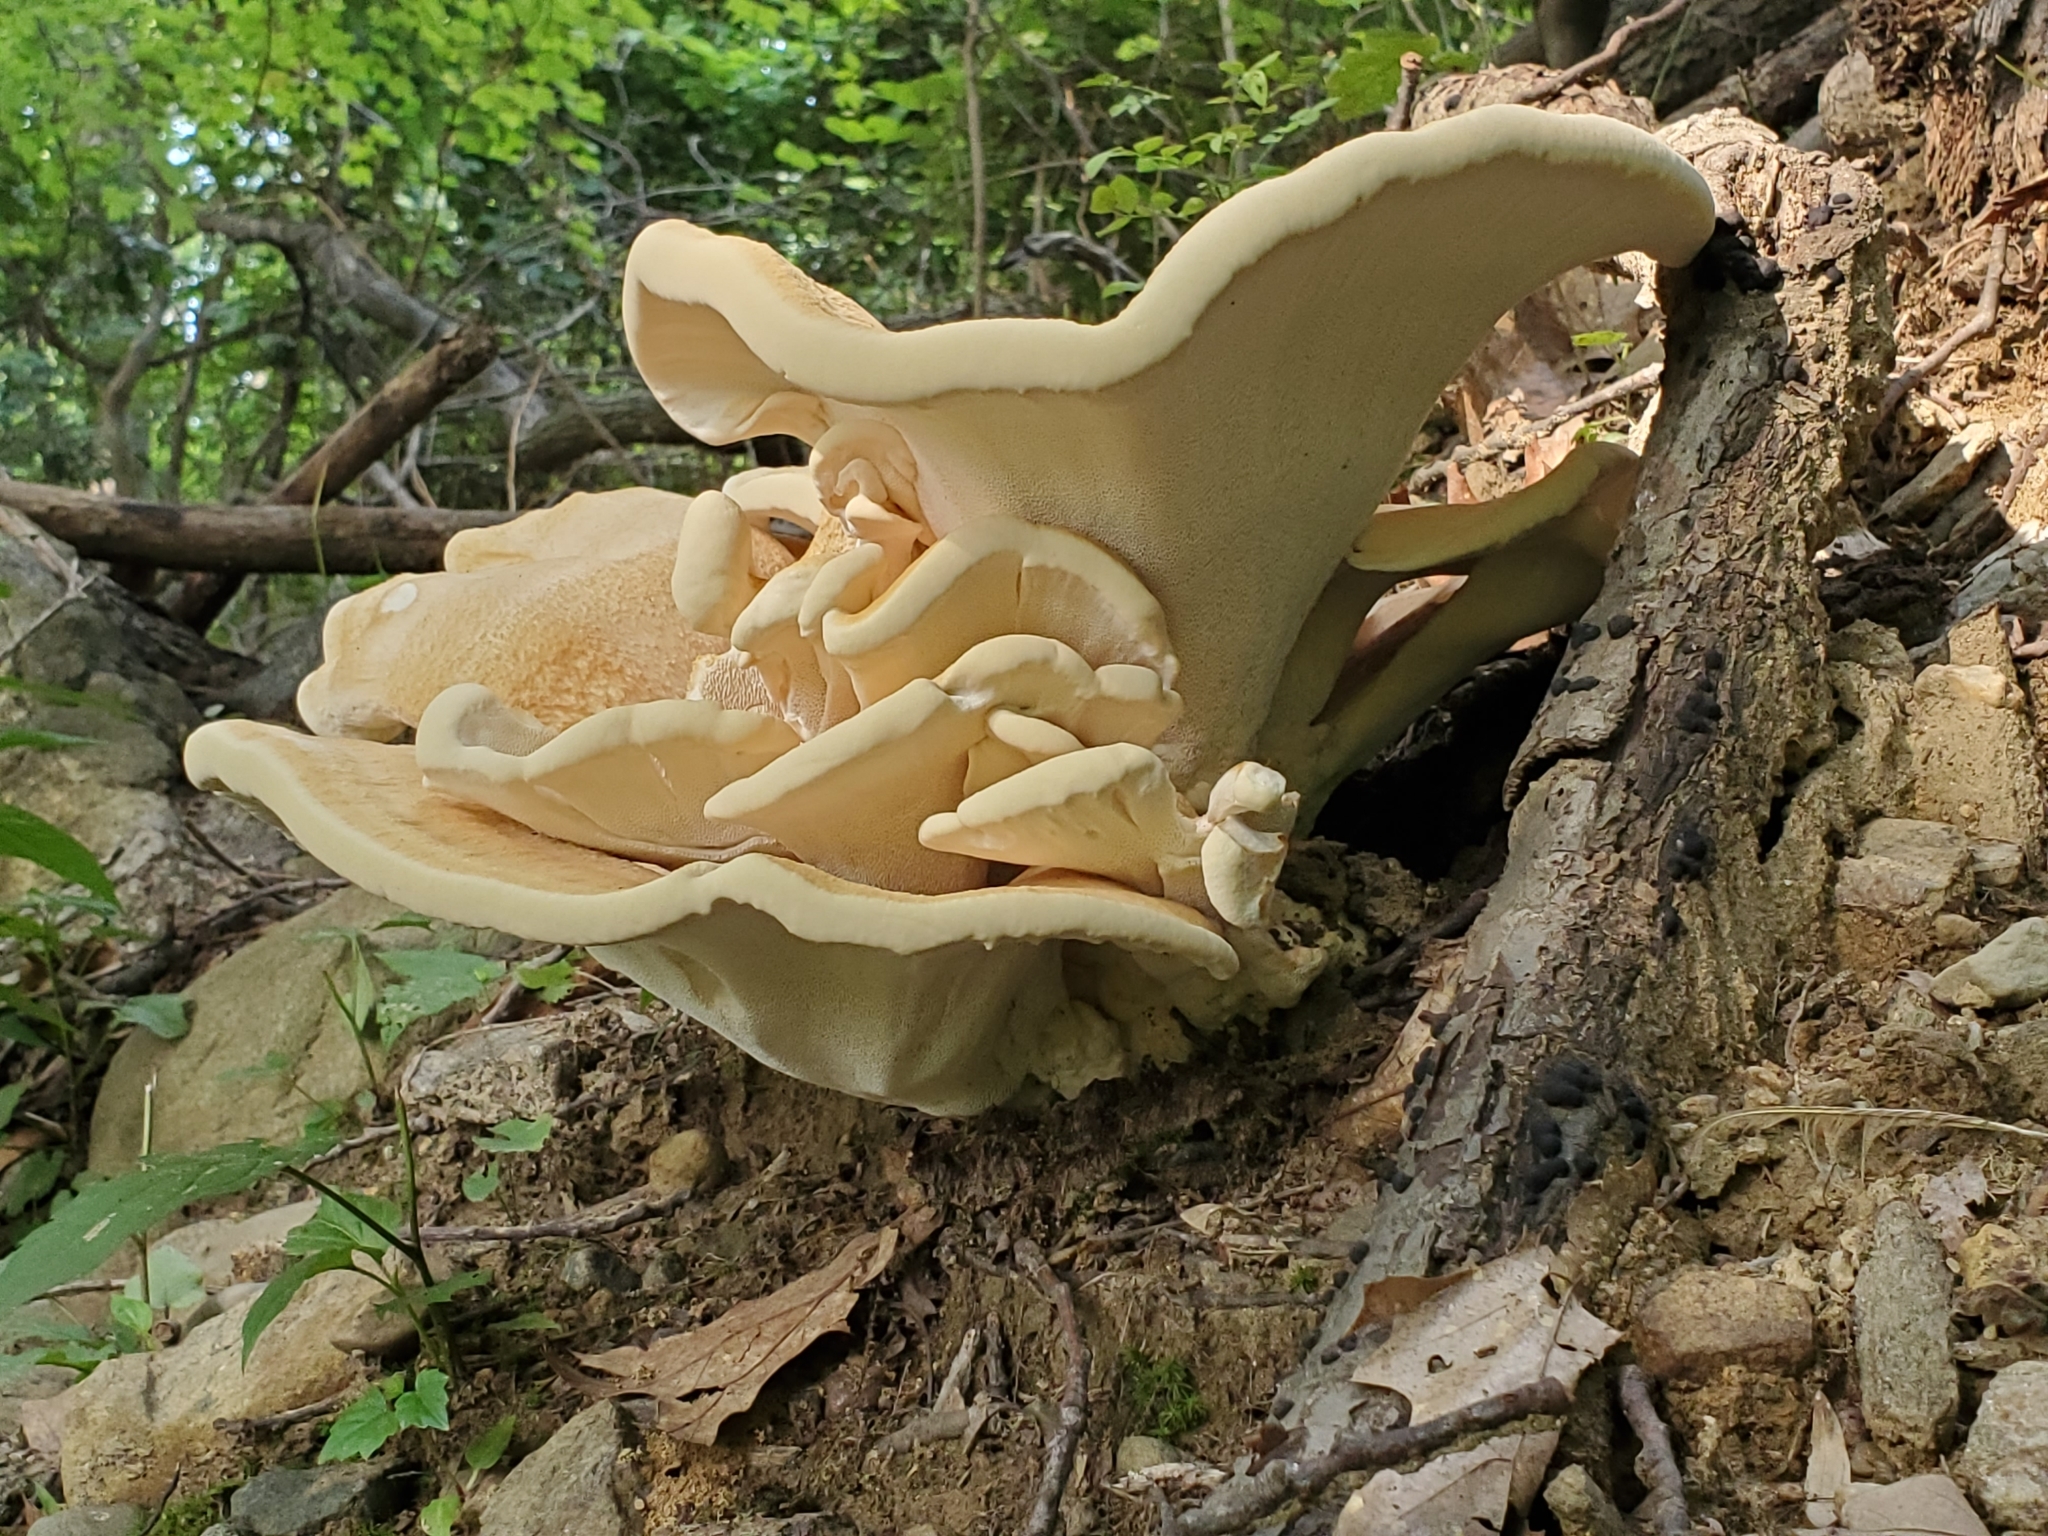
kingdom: Fungi
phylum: Basidiomycota
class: Agaricomycetes
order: Russulales
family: Bondarzewiaceae
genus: Bondarzewia
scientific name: Bondarzewia berkeleyi
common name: Berkeley's polypore
